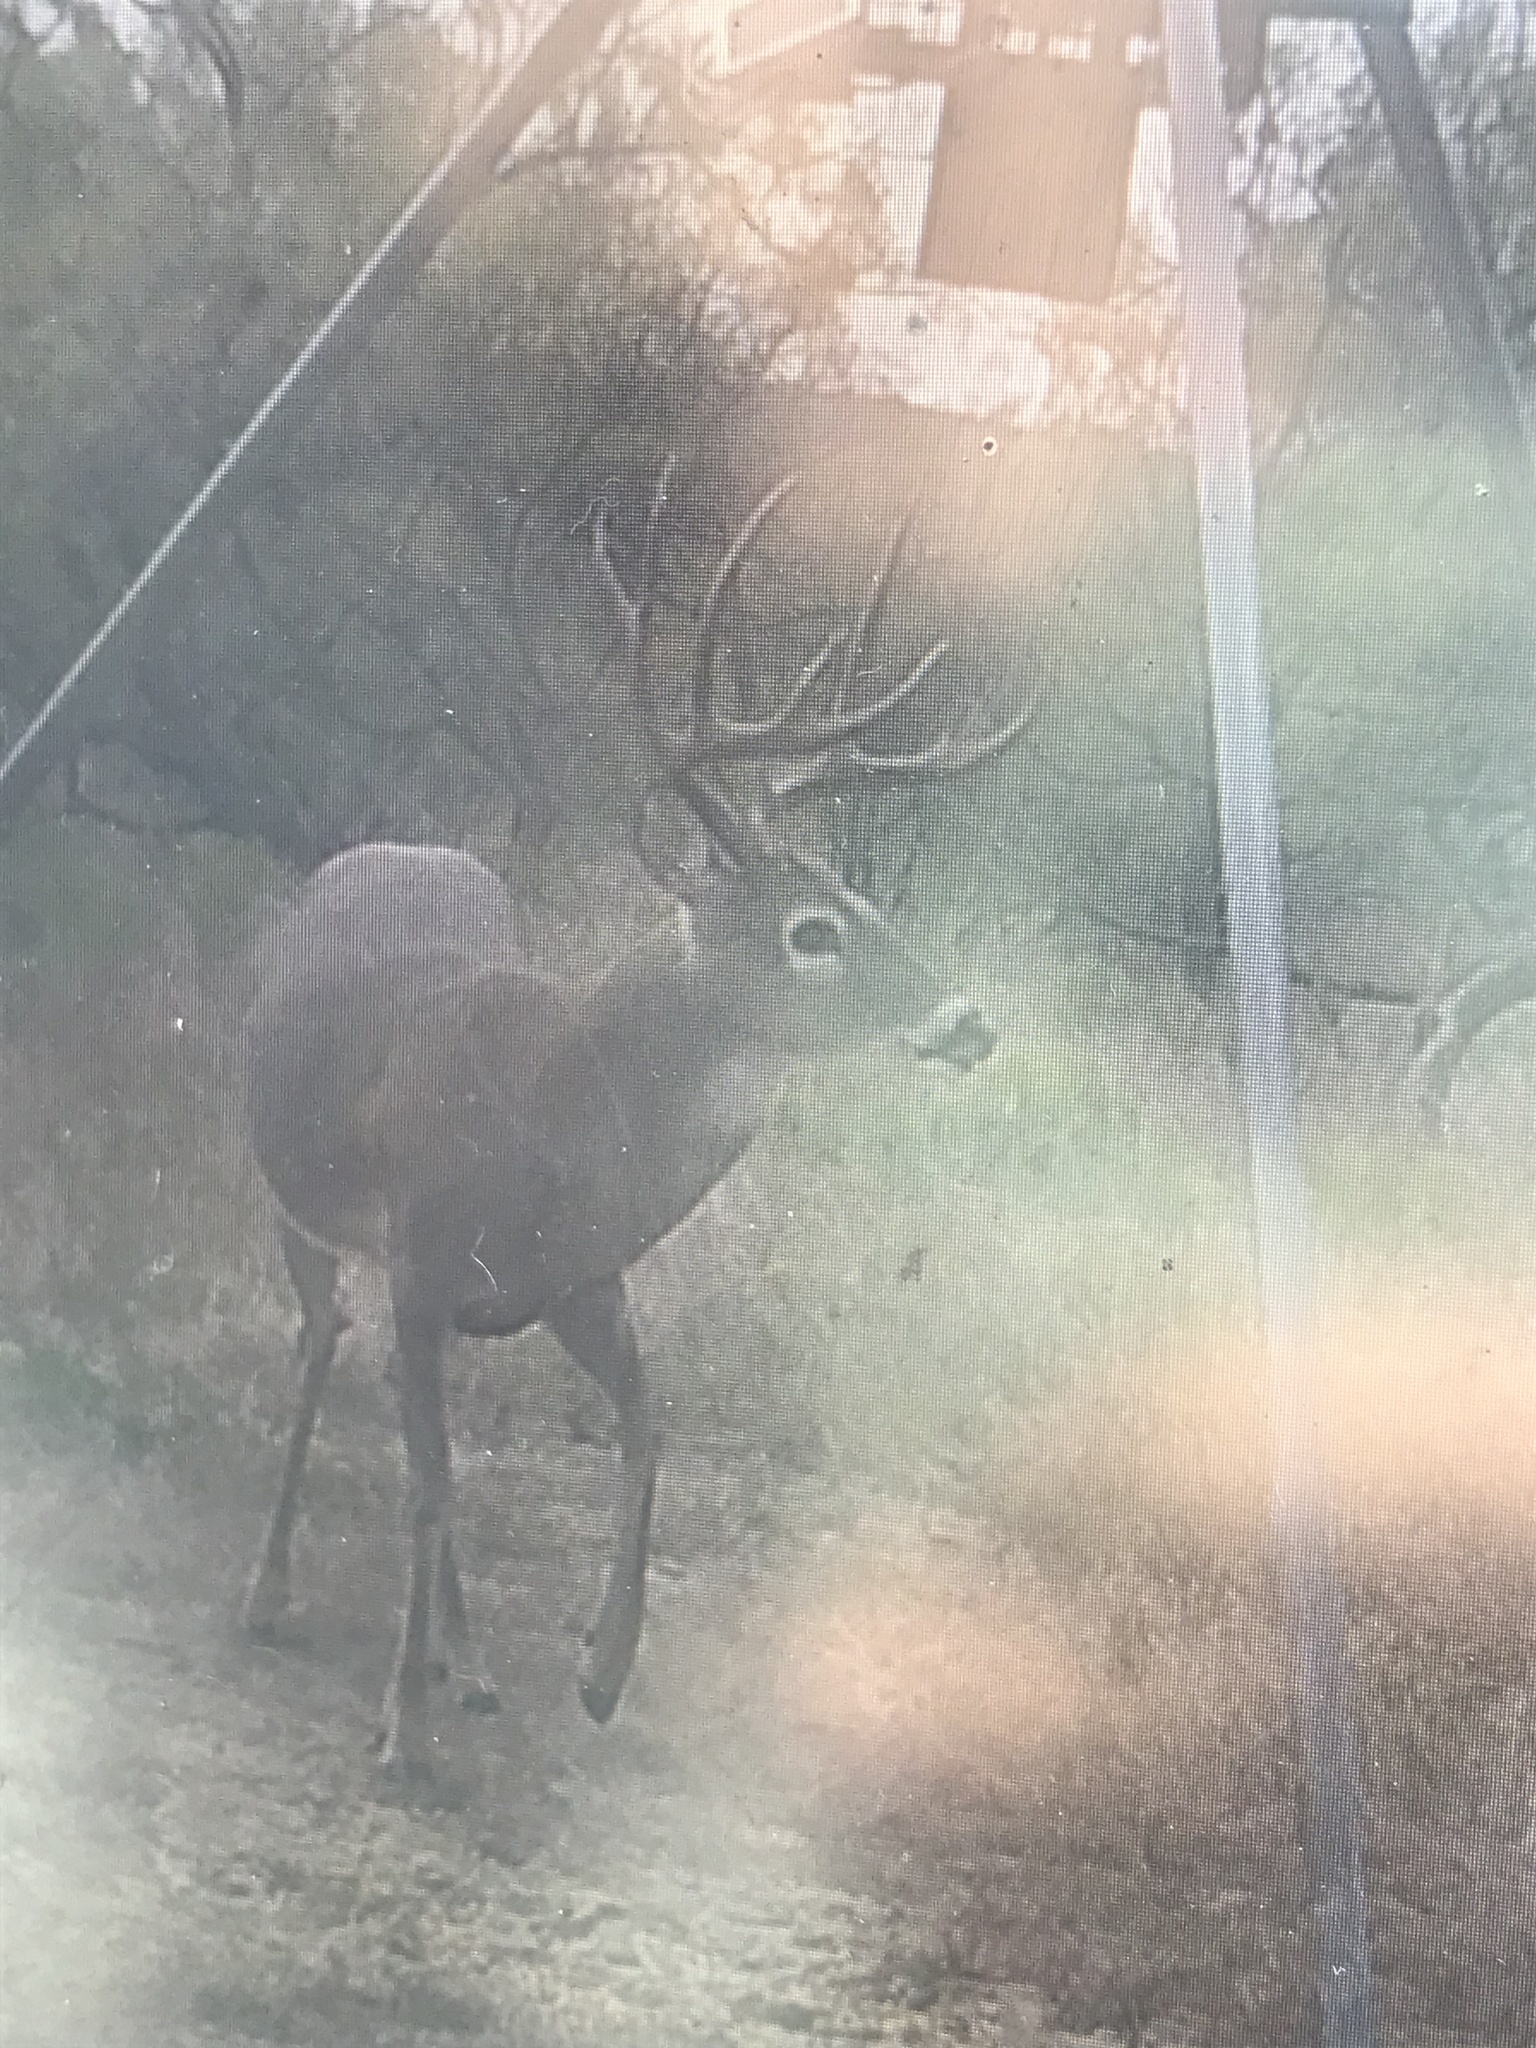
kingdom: Animalia
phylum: Chordata
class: Mammalia
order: Artiodactyla
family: Cervidae
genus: Odocoileus
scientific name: Odocoileus virginianus
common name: White-tailed deer
